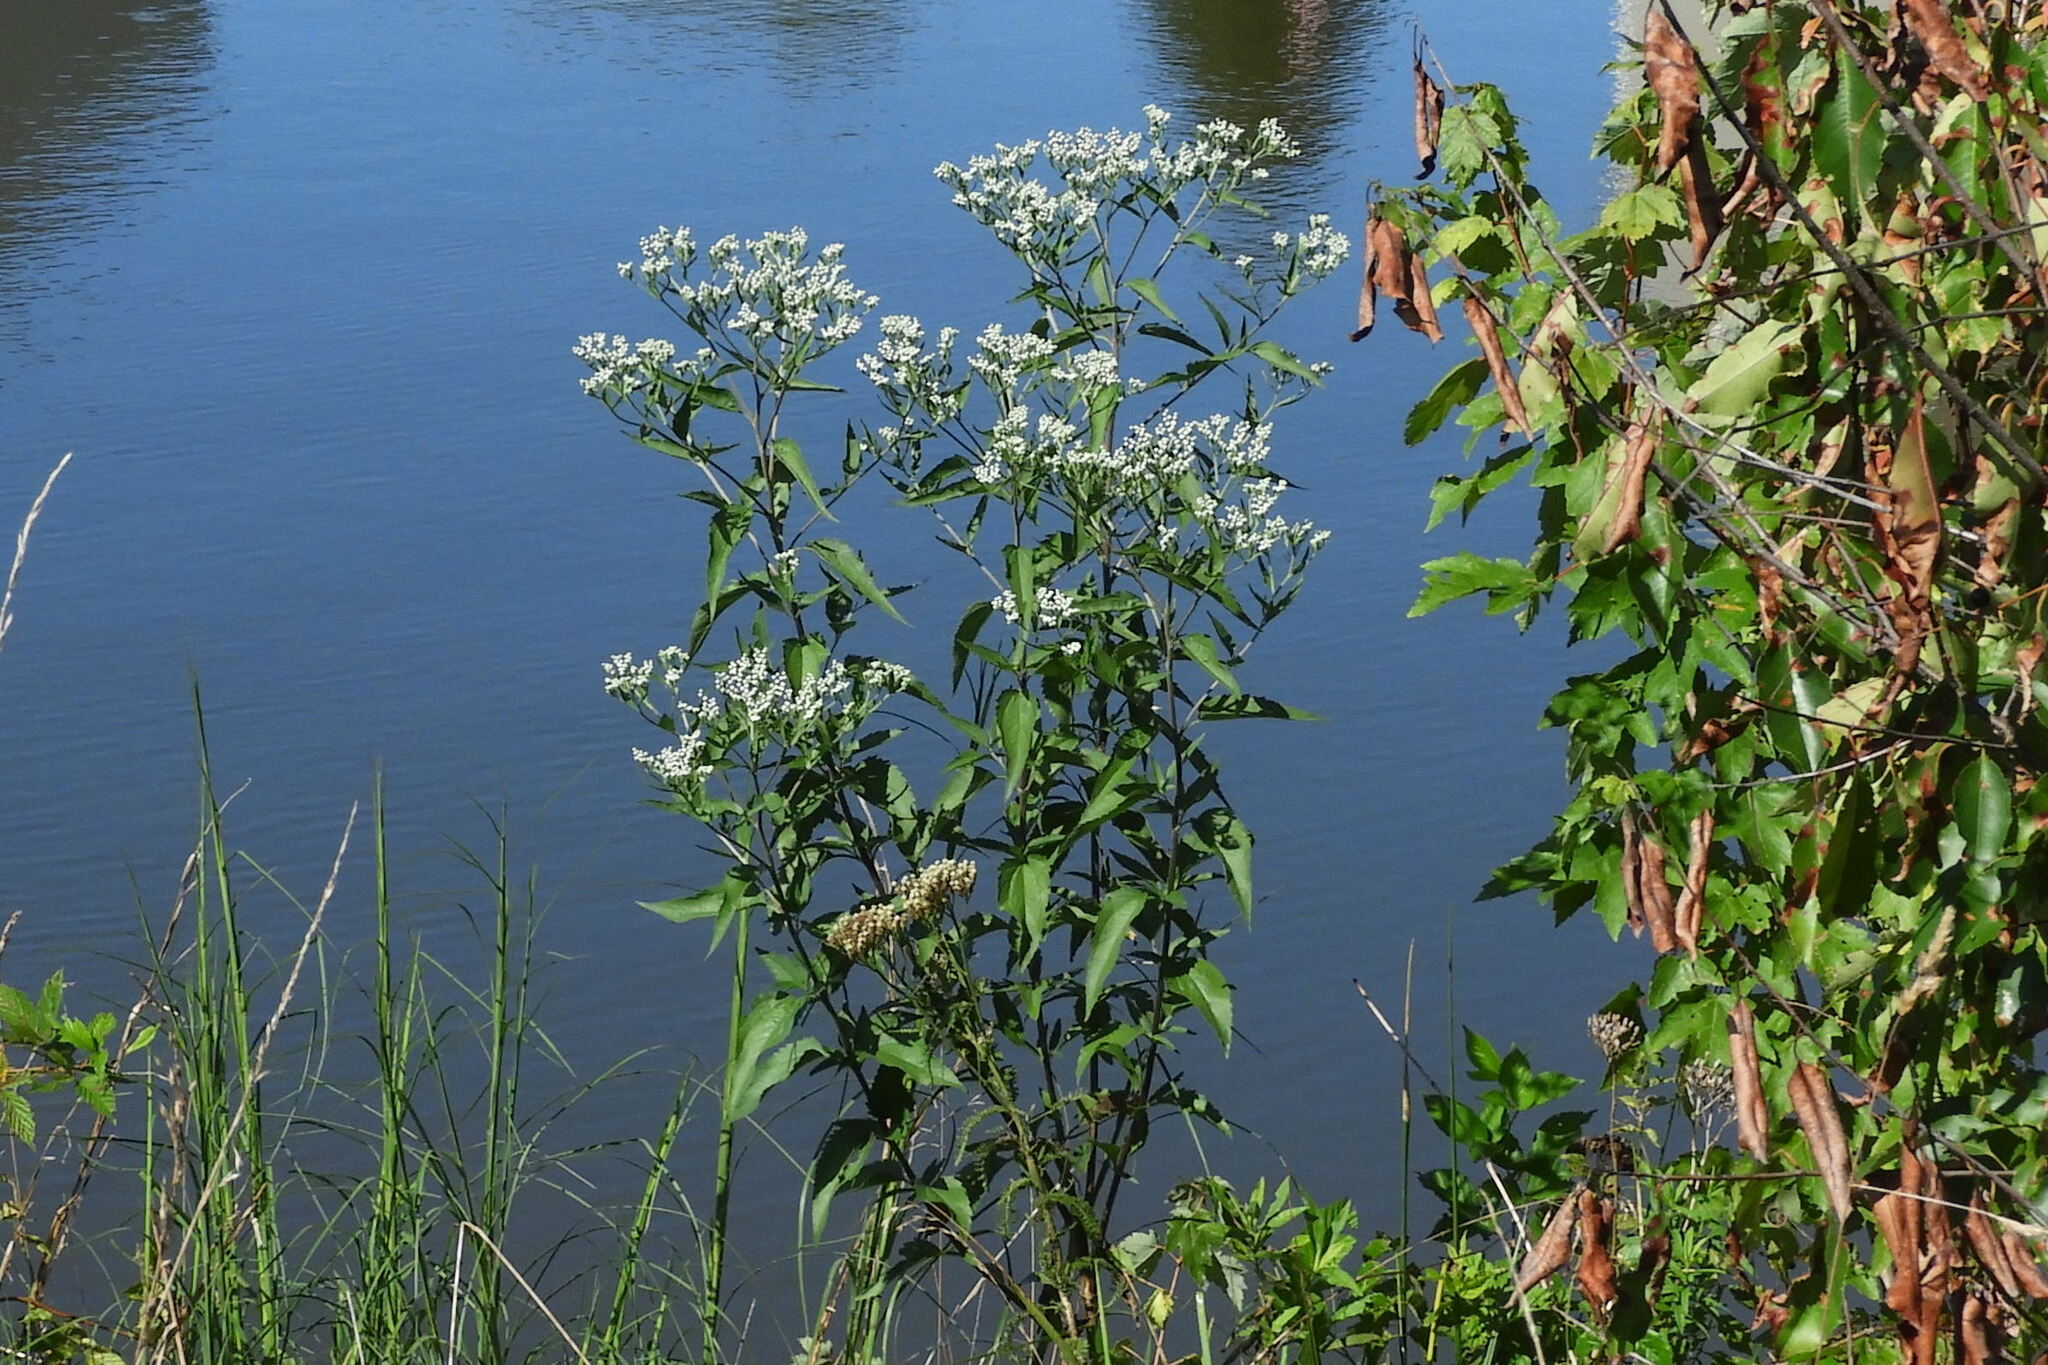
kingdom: Plantae
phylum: Tracheophyta
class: Magnoliopsida
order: Asterales
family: Asteraceae
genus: Eupatorium
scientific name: Eupatorium serotinum
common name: Late boneset
